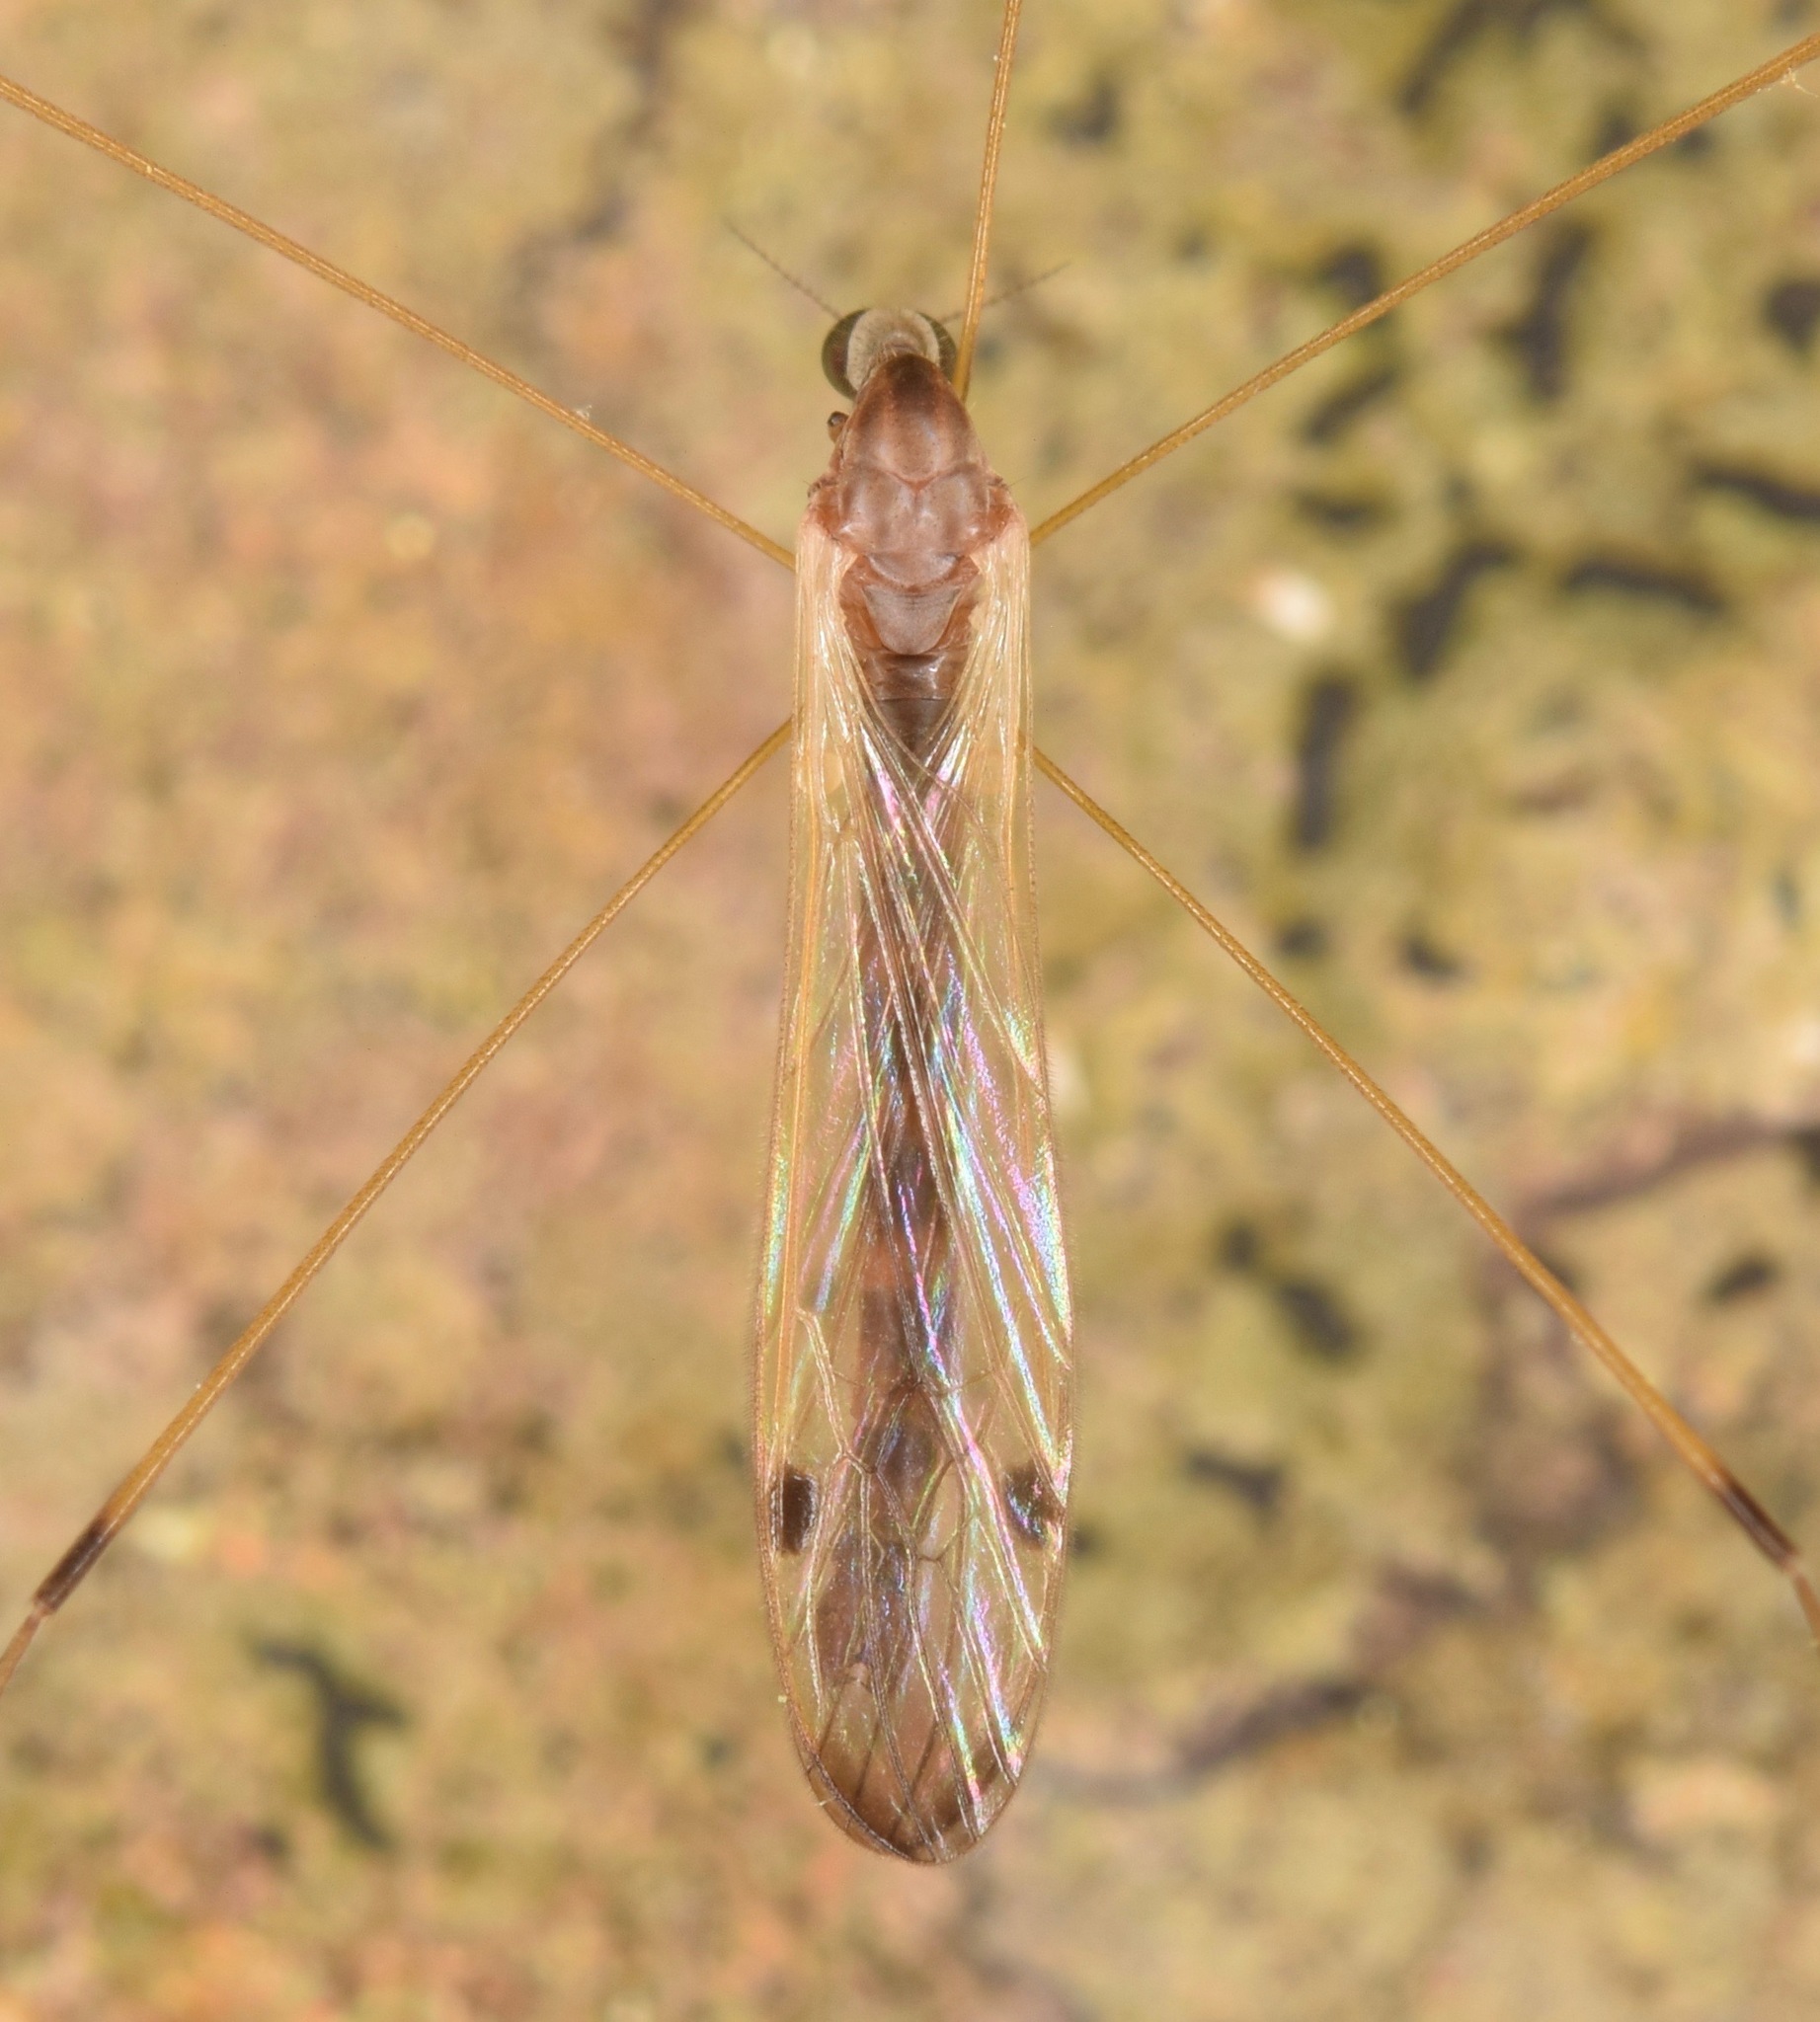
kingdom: Animalia
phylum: Arthropoda
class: Insecta
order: Diptera
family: Limoniidae
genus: Helius
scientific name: Helius flavipes
